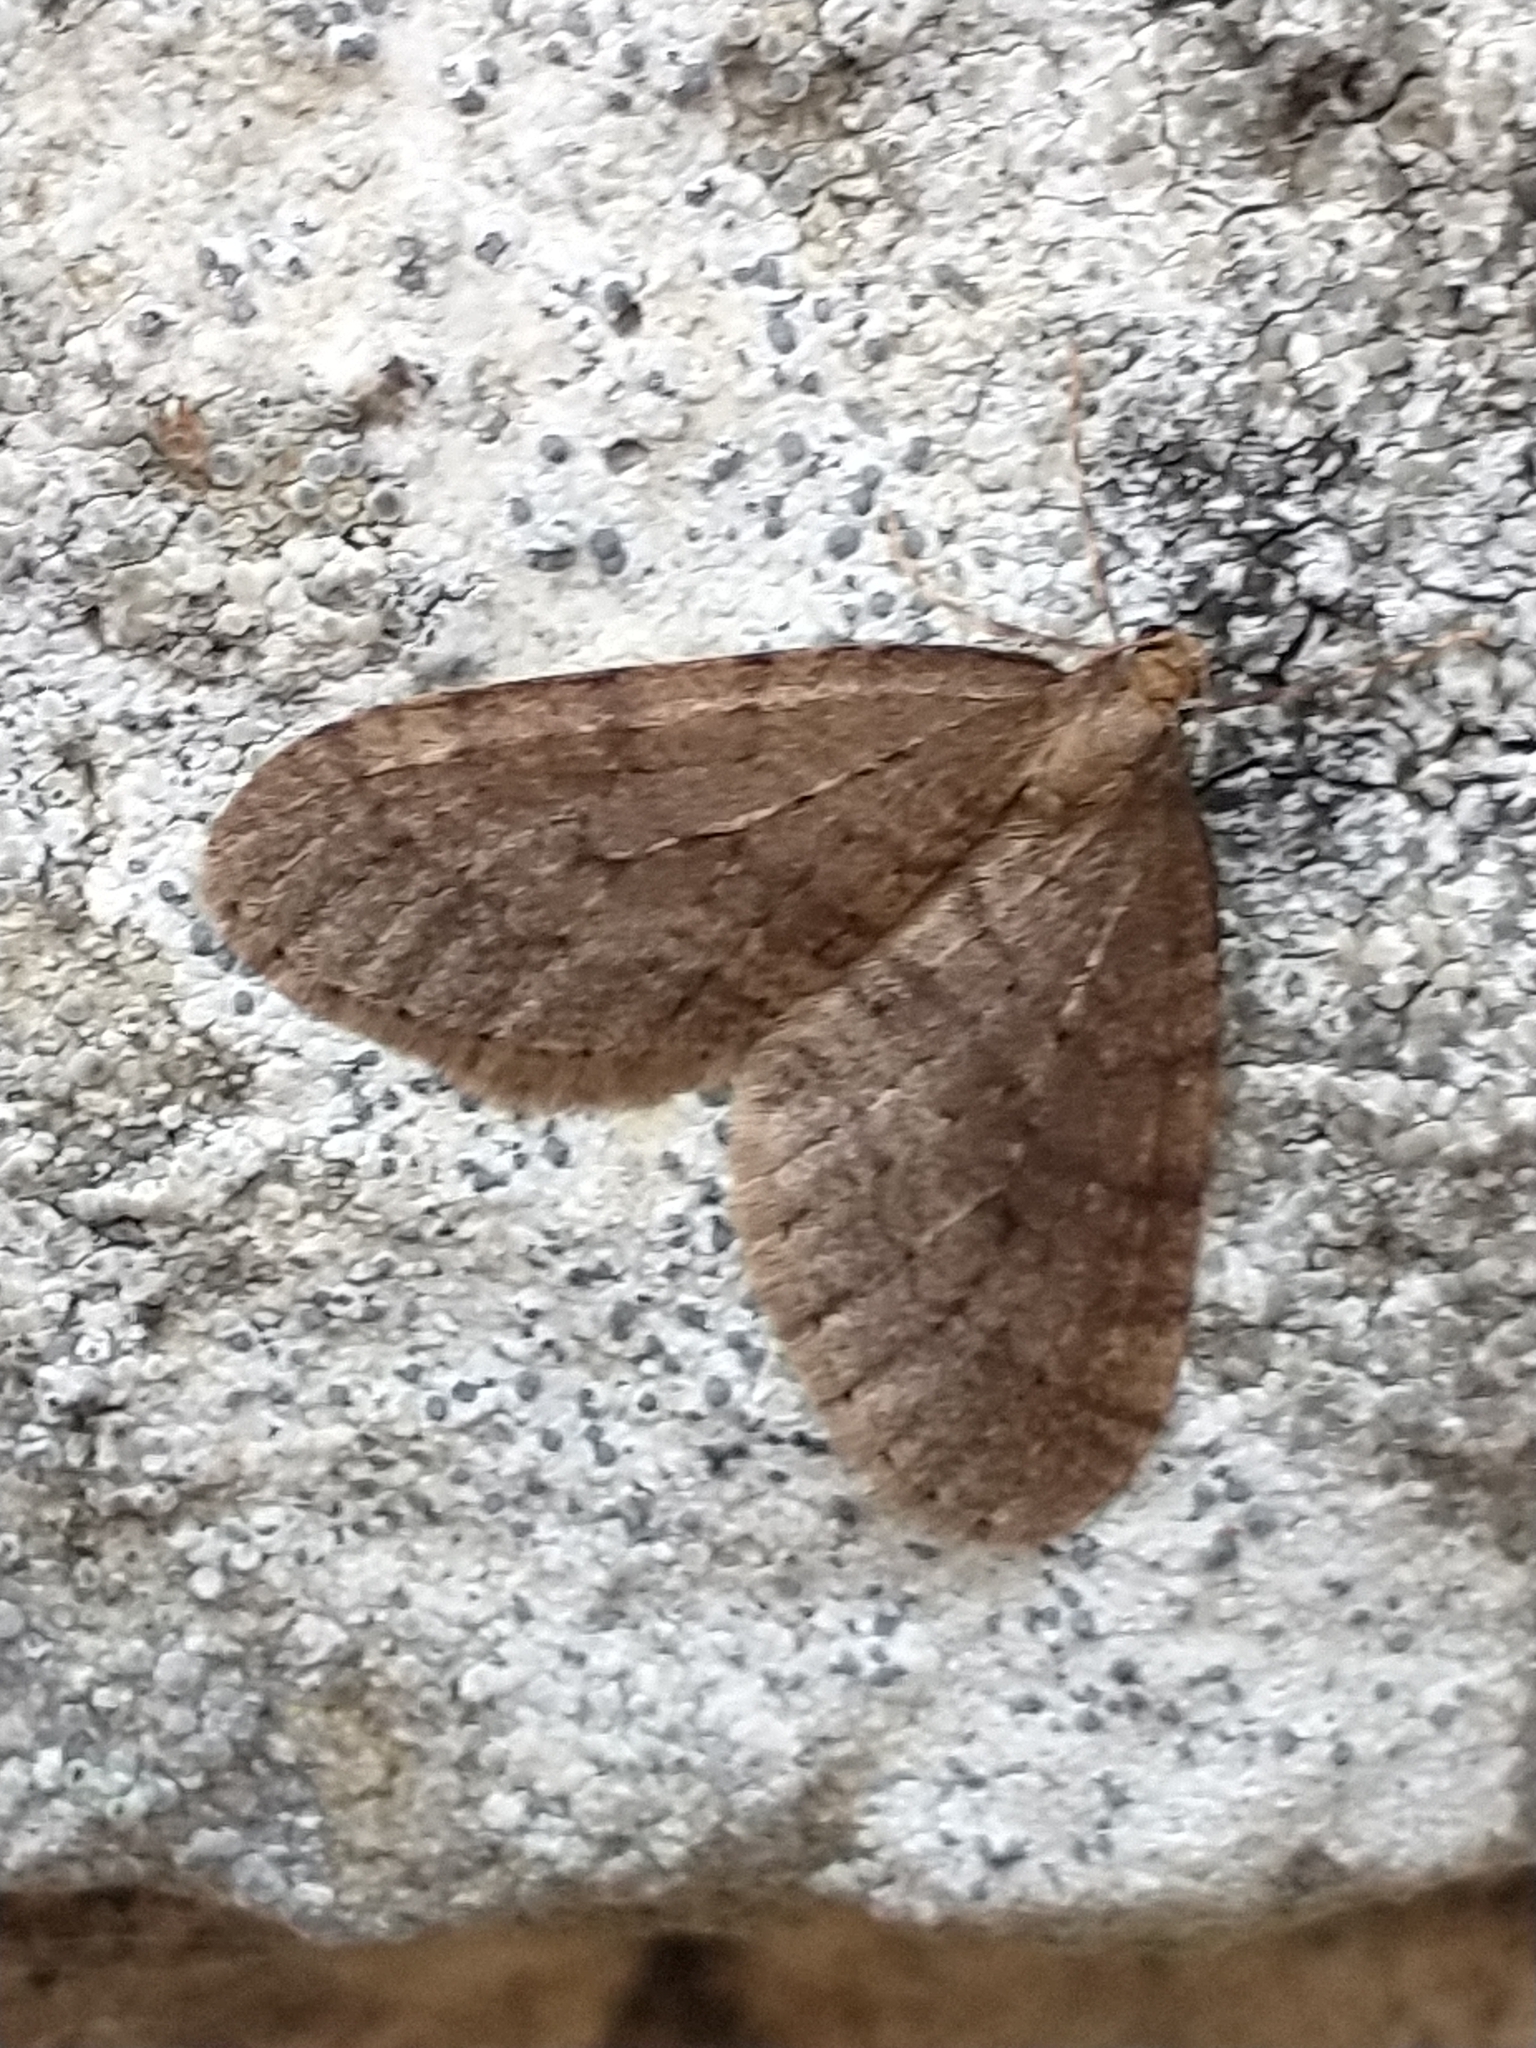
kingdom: Animalia
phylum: Arthropoda
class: Insecta
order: Lepidoptera
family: Geometridae
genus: Operophtera
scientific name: Operophtera brumata
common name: Winter moth
